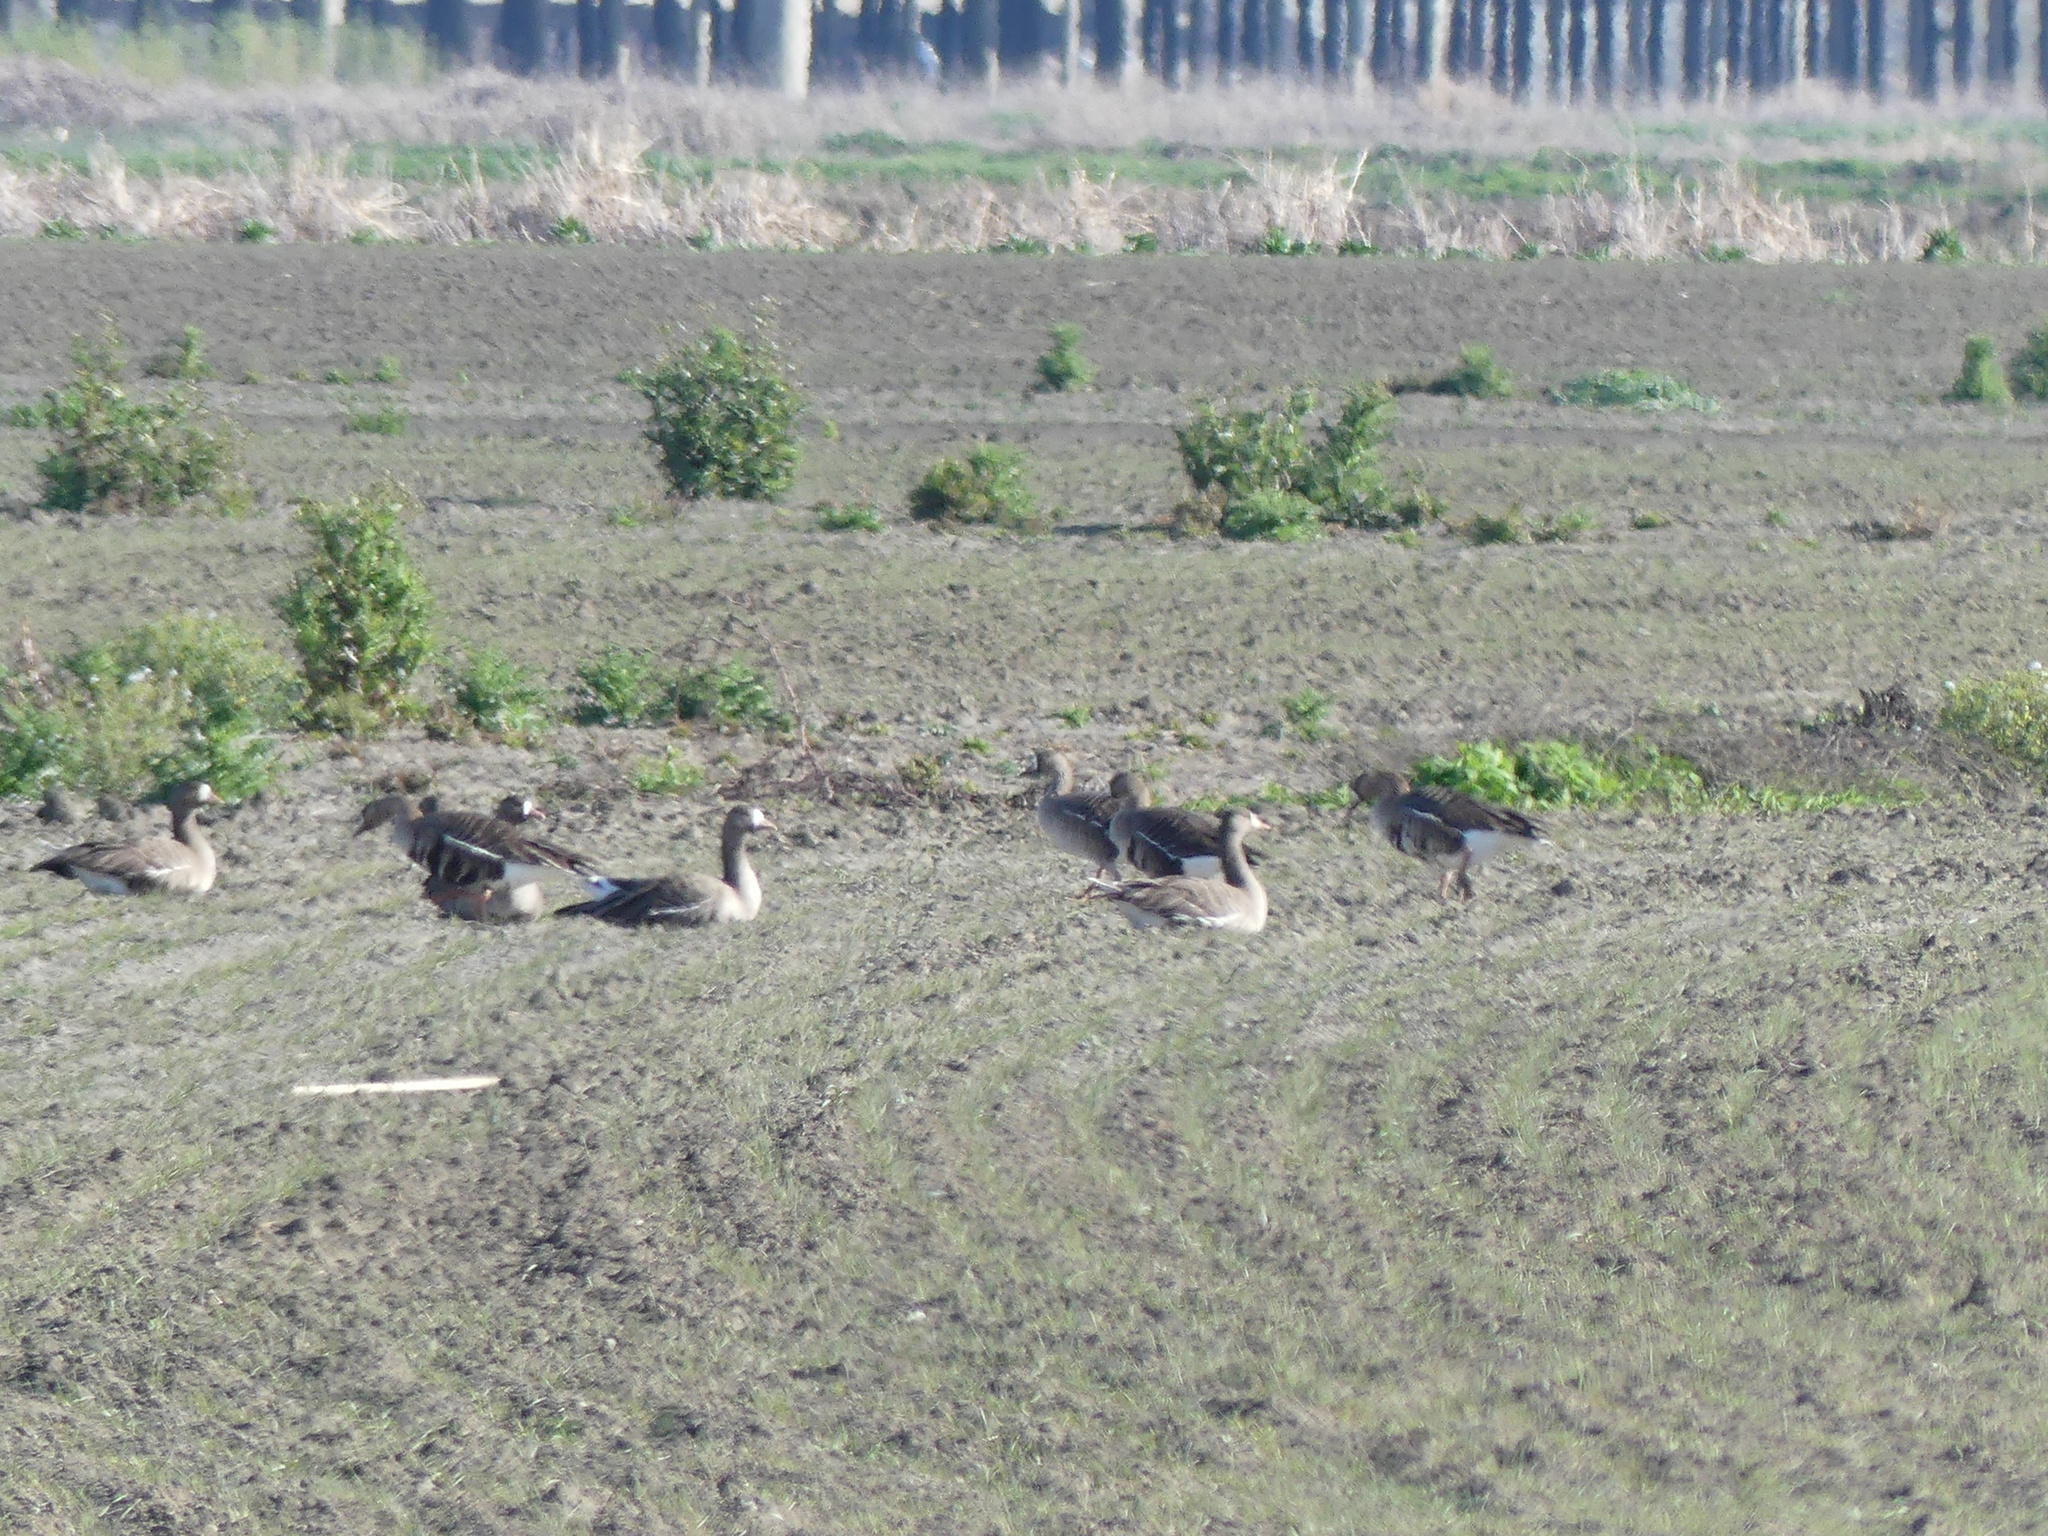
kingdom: Animalia
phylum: Chordata
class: Aves
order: Anseriformes
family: Anatidae
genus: Anser
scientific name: Anser albifrons
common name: Greater white-fronted goose
